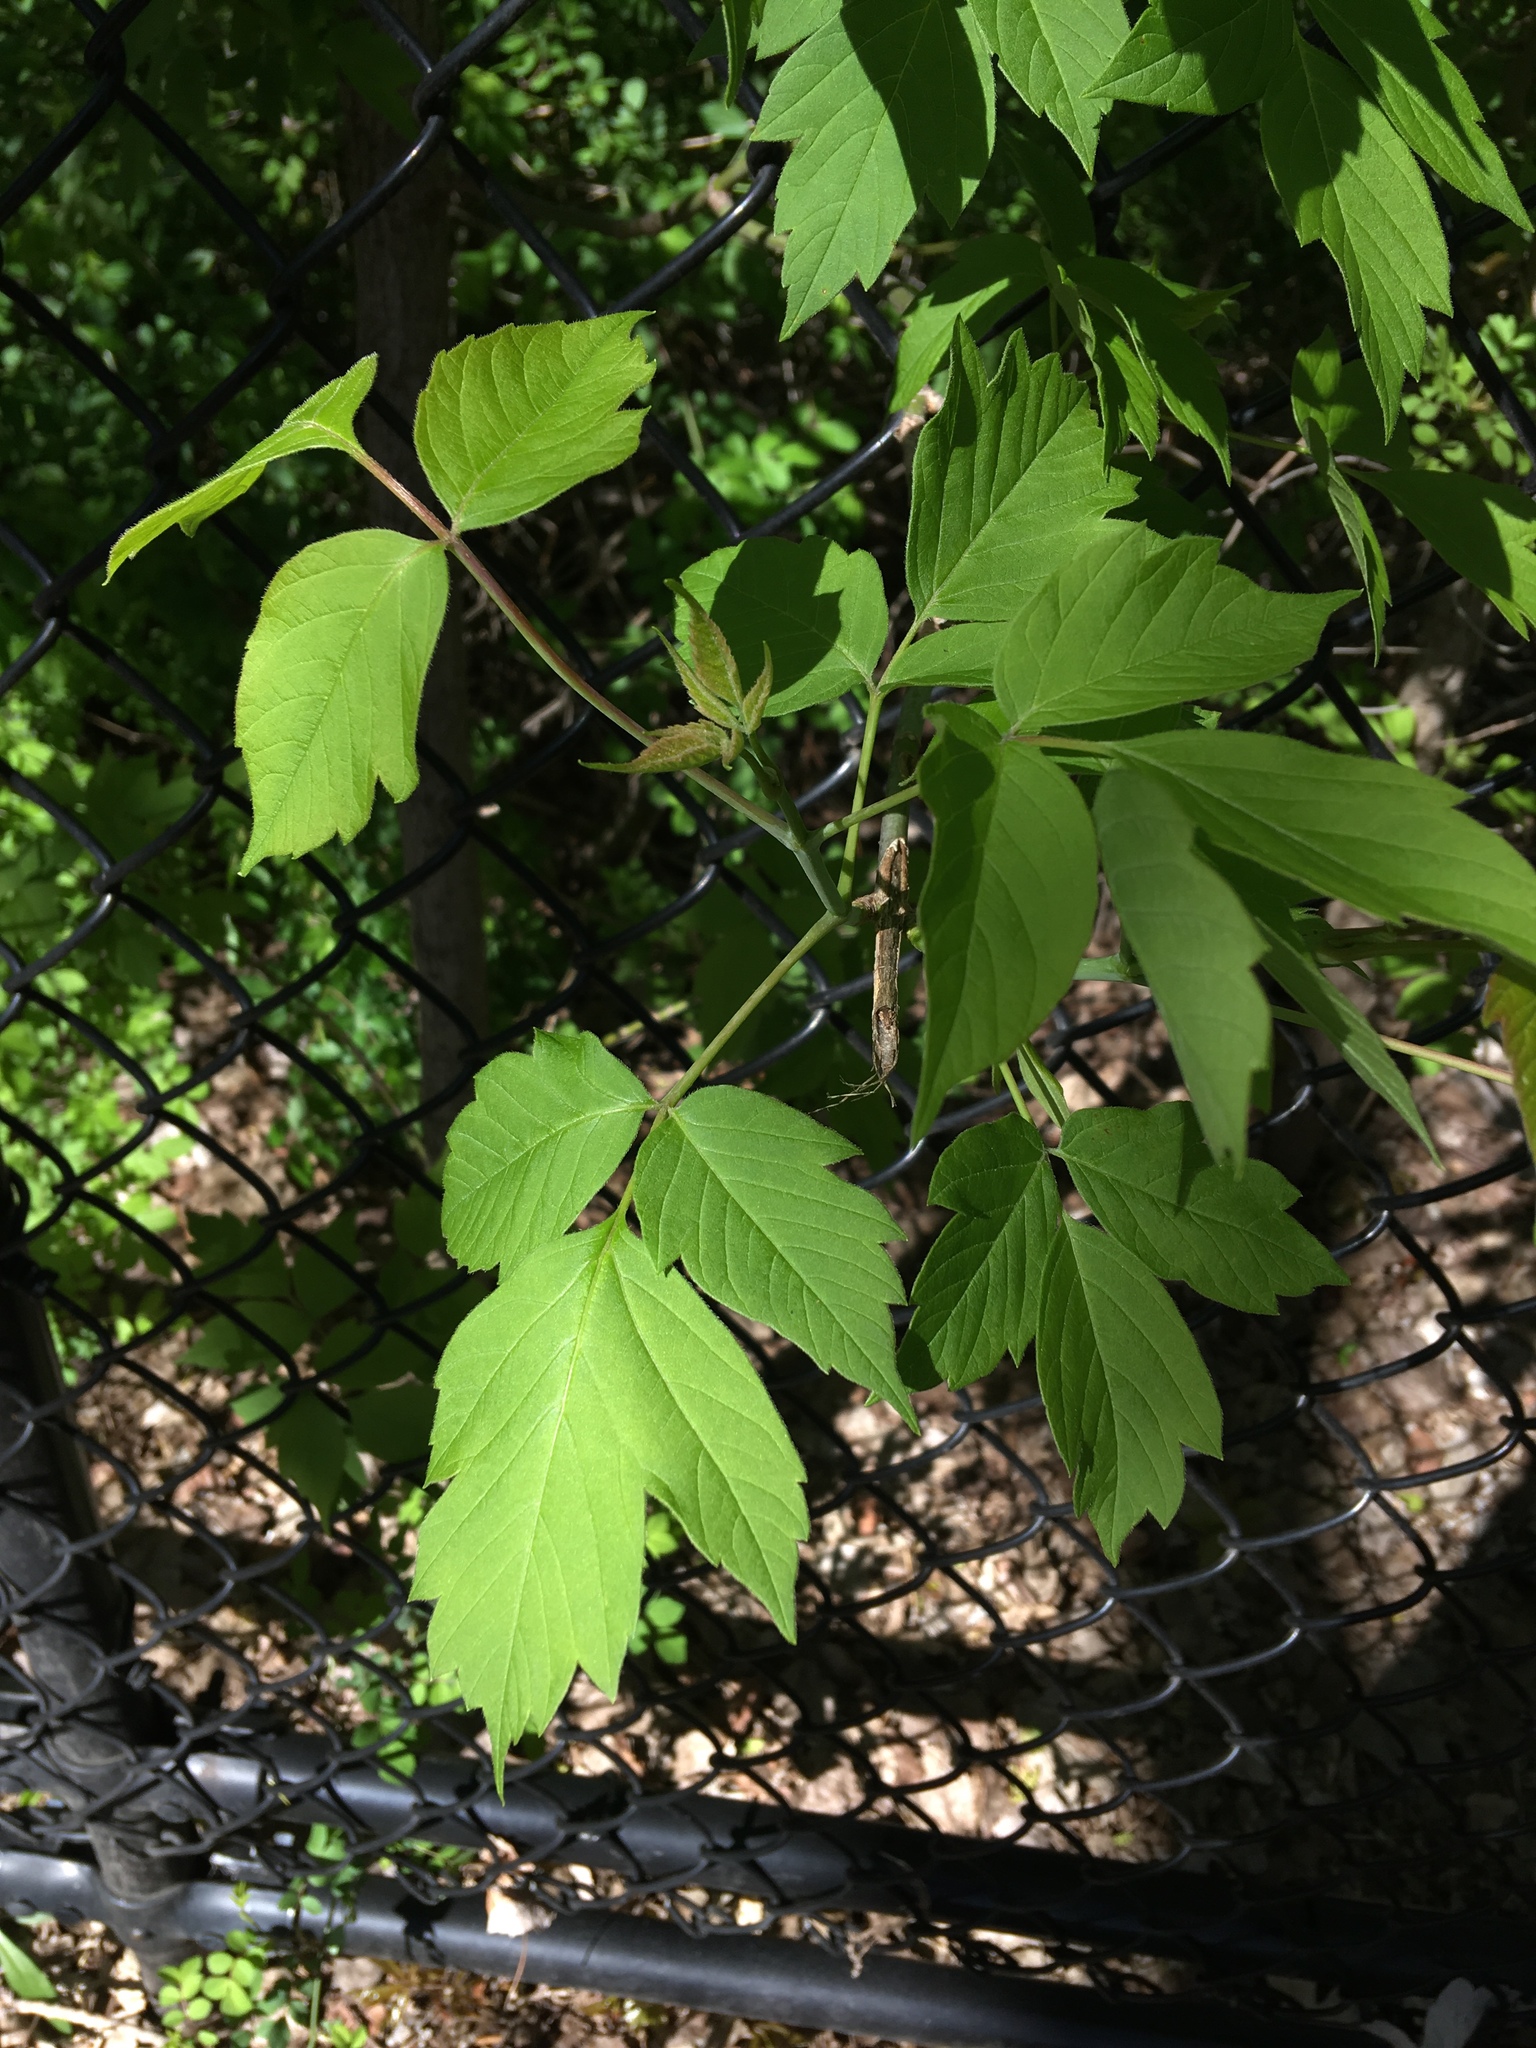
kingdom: Plantae
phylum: Tracheophyta
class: Magnoliopsida
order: Sapindales
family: Sapindaceae
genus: Acer
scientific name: Acer negundo
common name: Ashleaf maple
